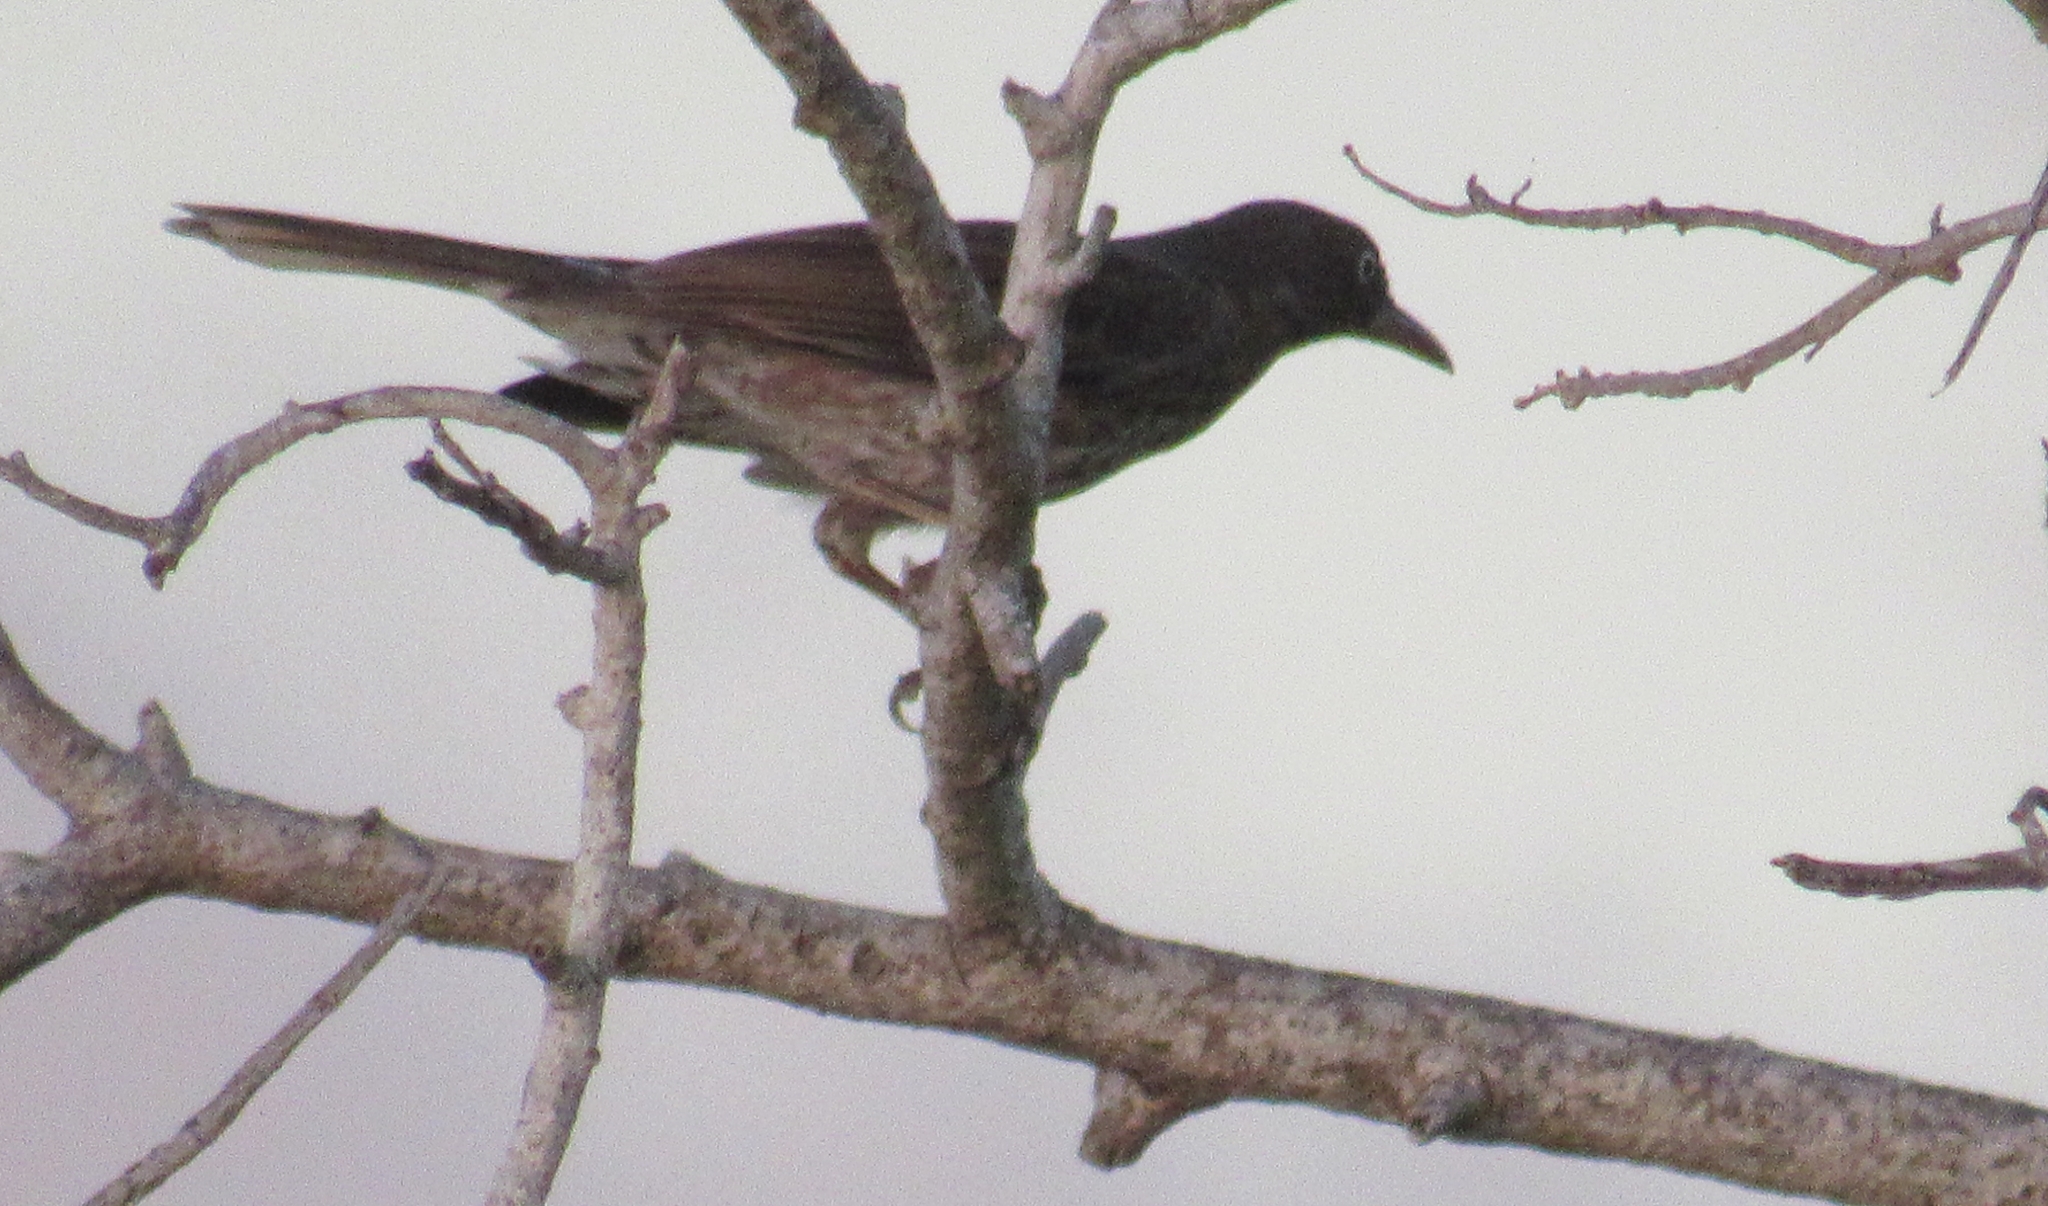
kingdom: Animalia
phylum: Chordata
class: Aves
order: Passeriformes
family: Mimidae
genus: Margarops
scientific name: Margarops fuscatus
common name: Pearly-eyed thrasher
